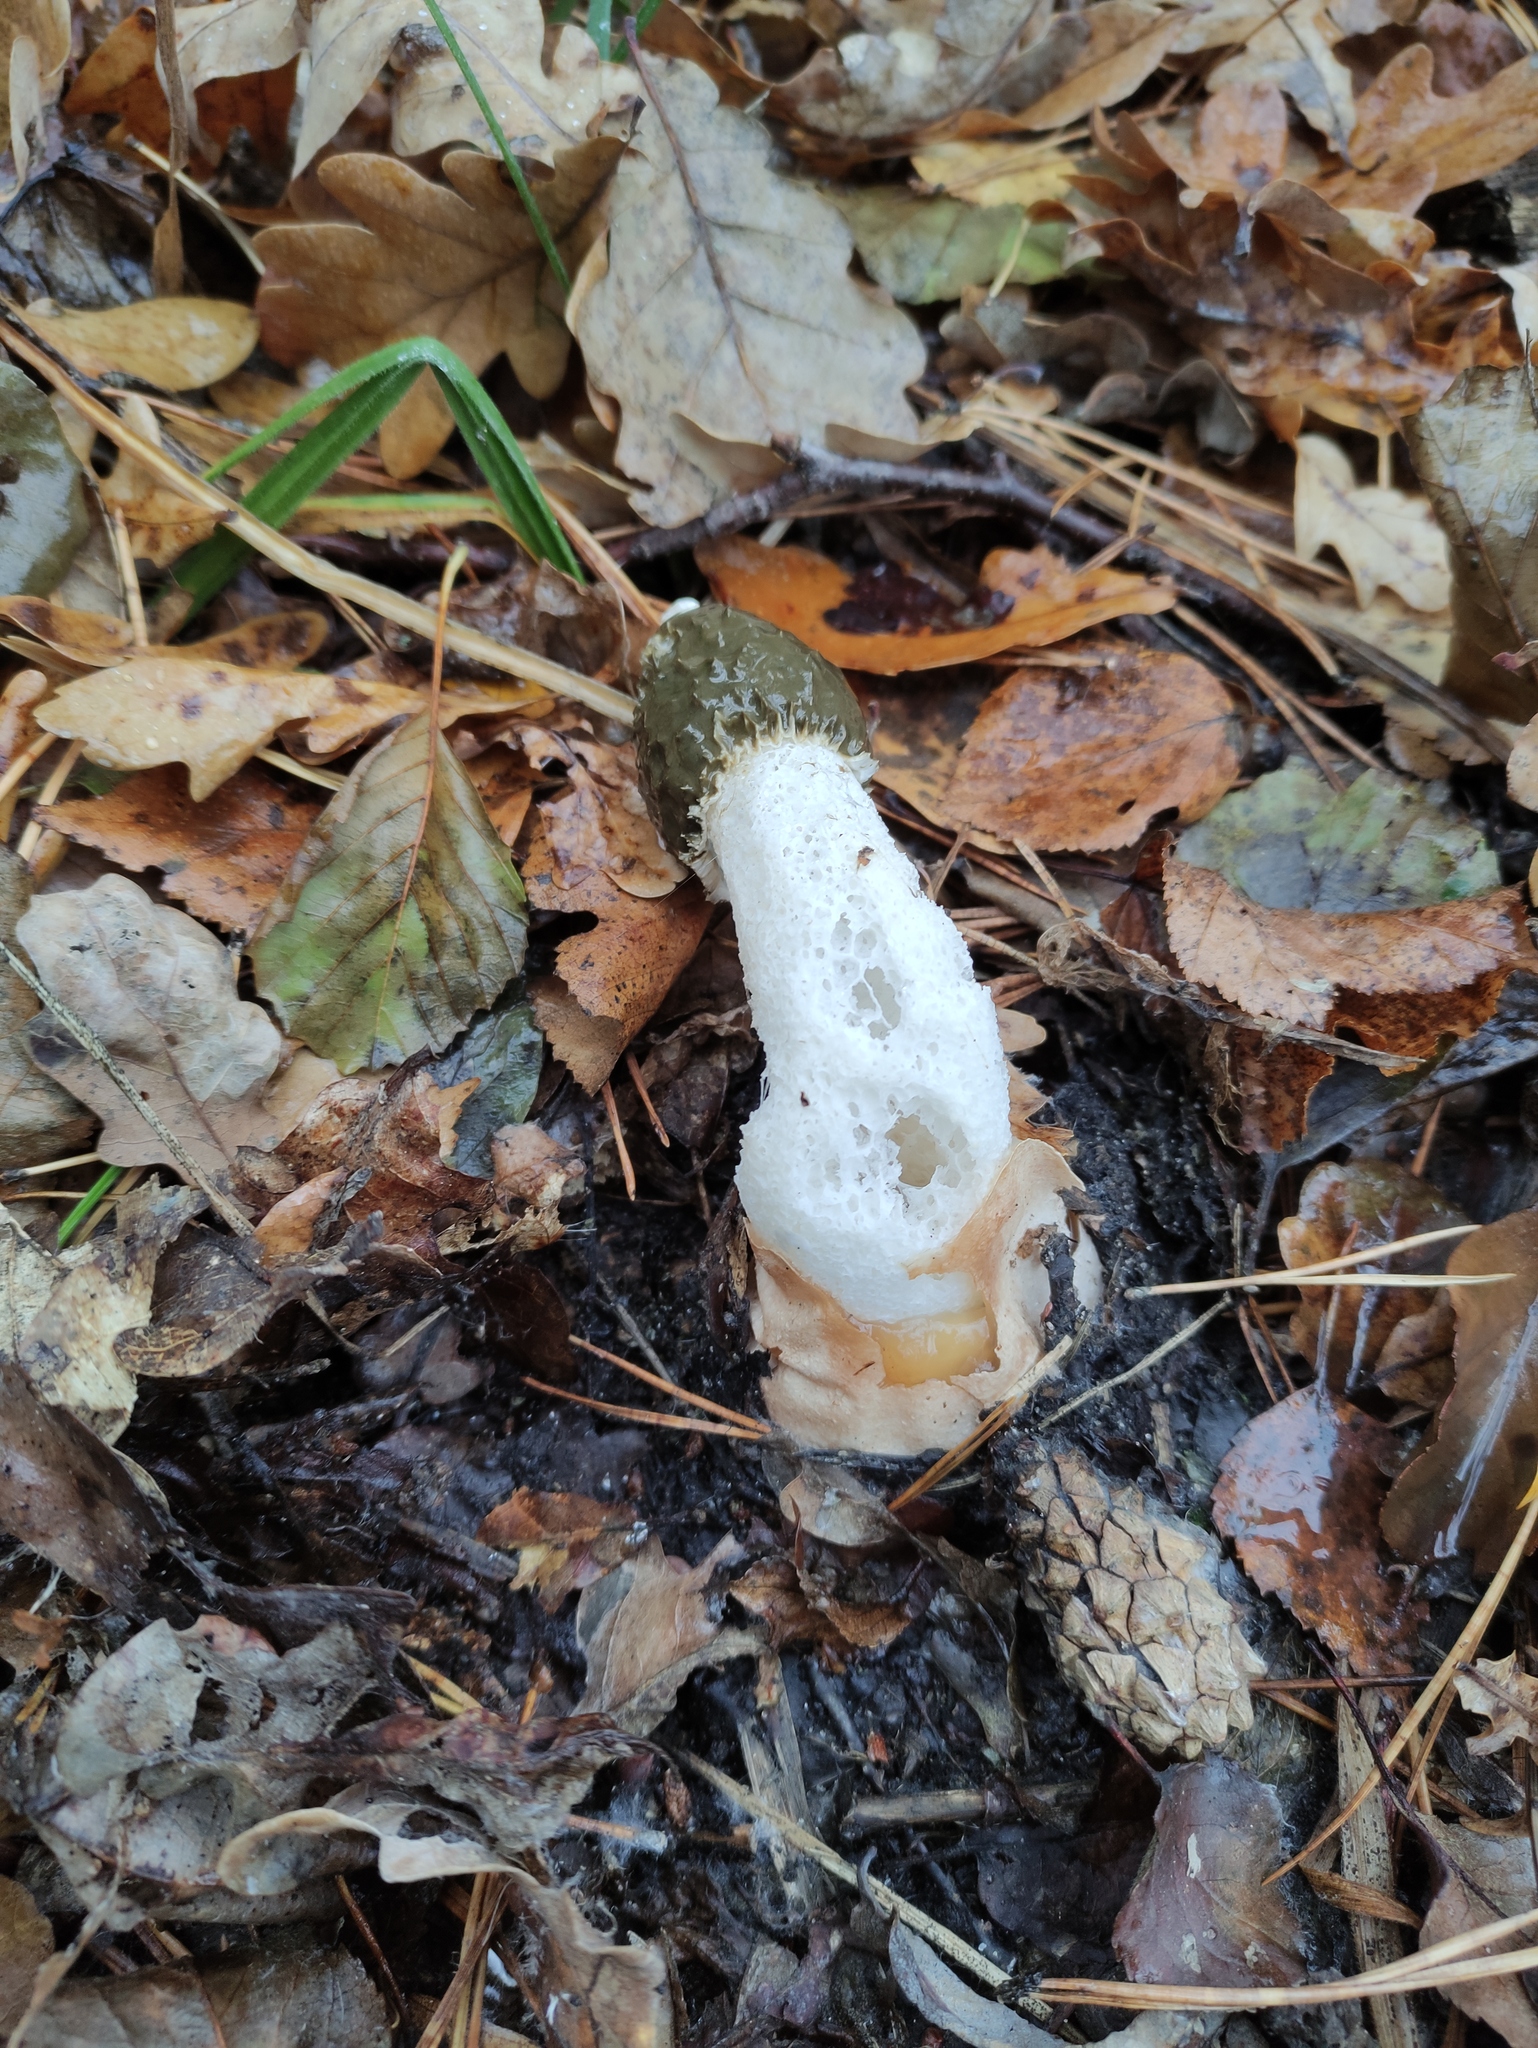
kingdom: Fungi
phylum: Basidiomycota
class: Agaricomycetes
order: Phallales
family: Phallaceae
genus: Phallus
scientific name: Phallus impudicus
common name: Common stinkhorn
